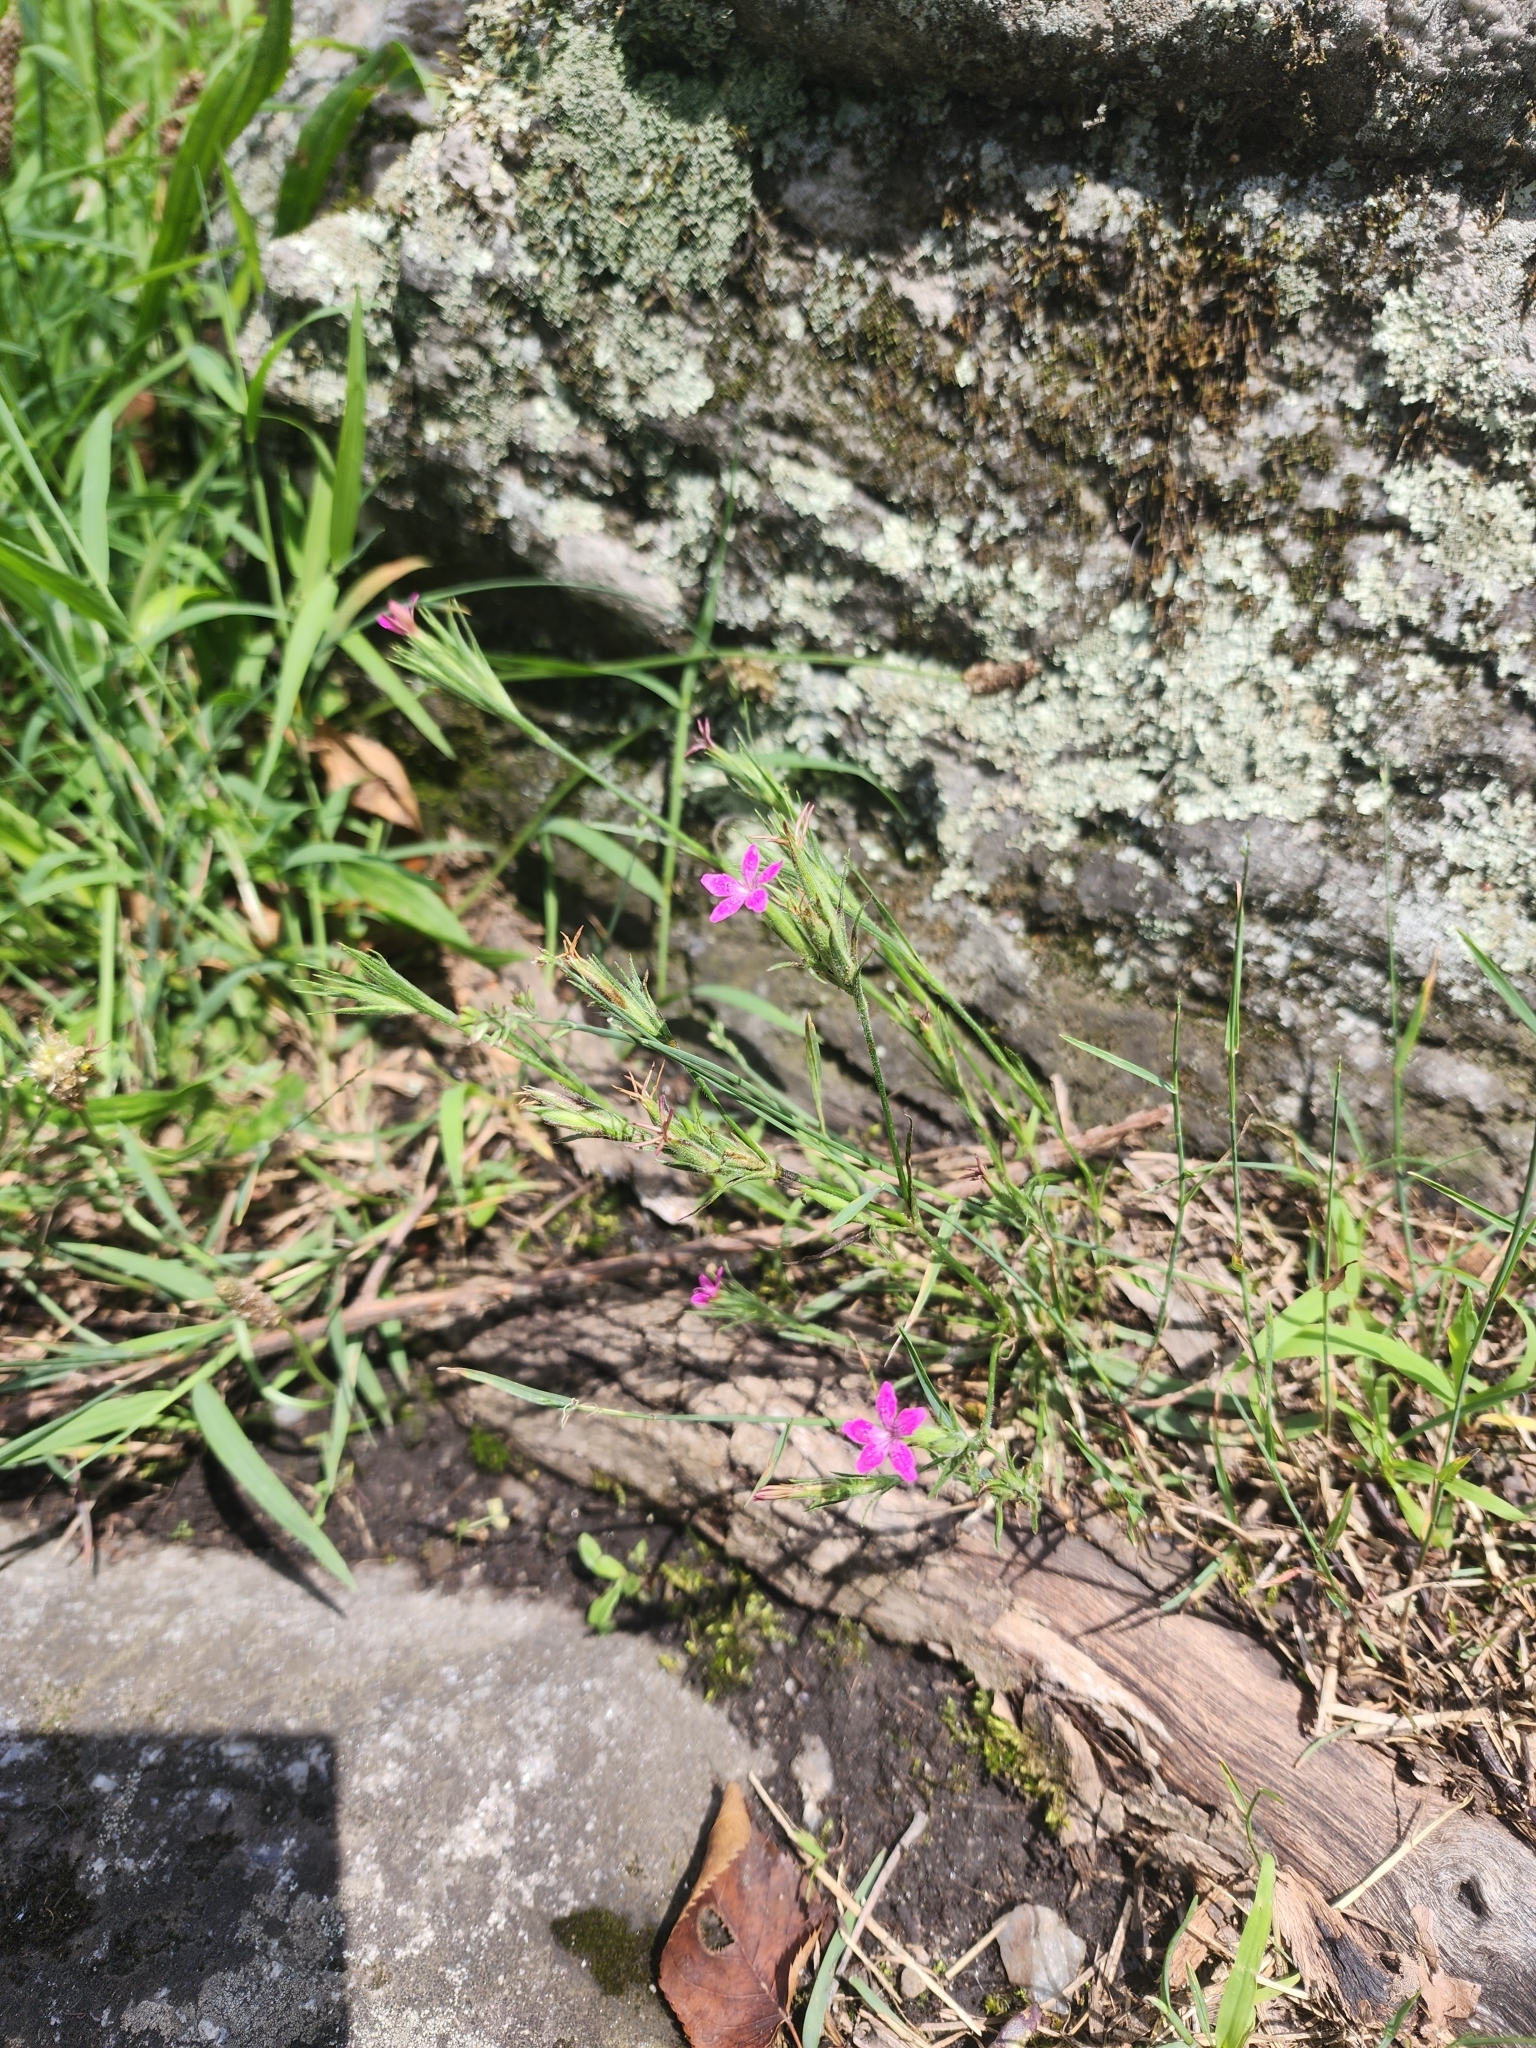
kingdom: Plantae
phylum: Tracheophyta
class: Magnoliopsida
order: Caryophyllales
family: Caryophyllaceae
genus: Dianthus
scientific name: Dianthus deltoides
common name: Maiden pink
